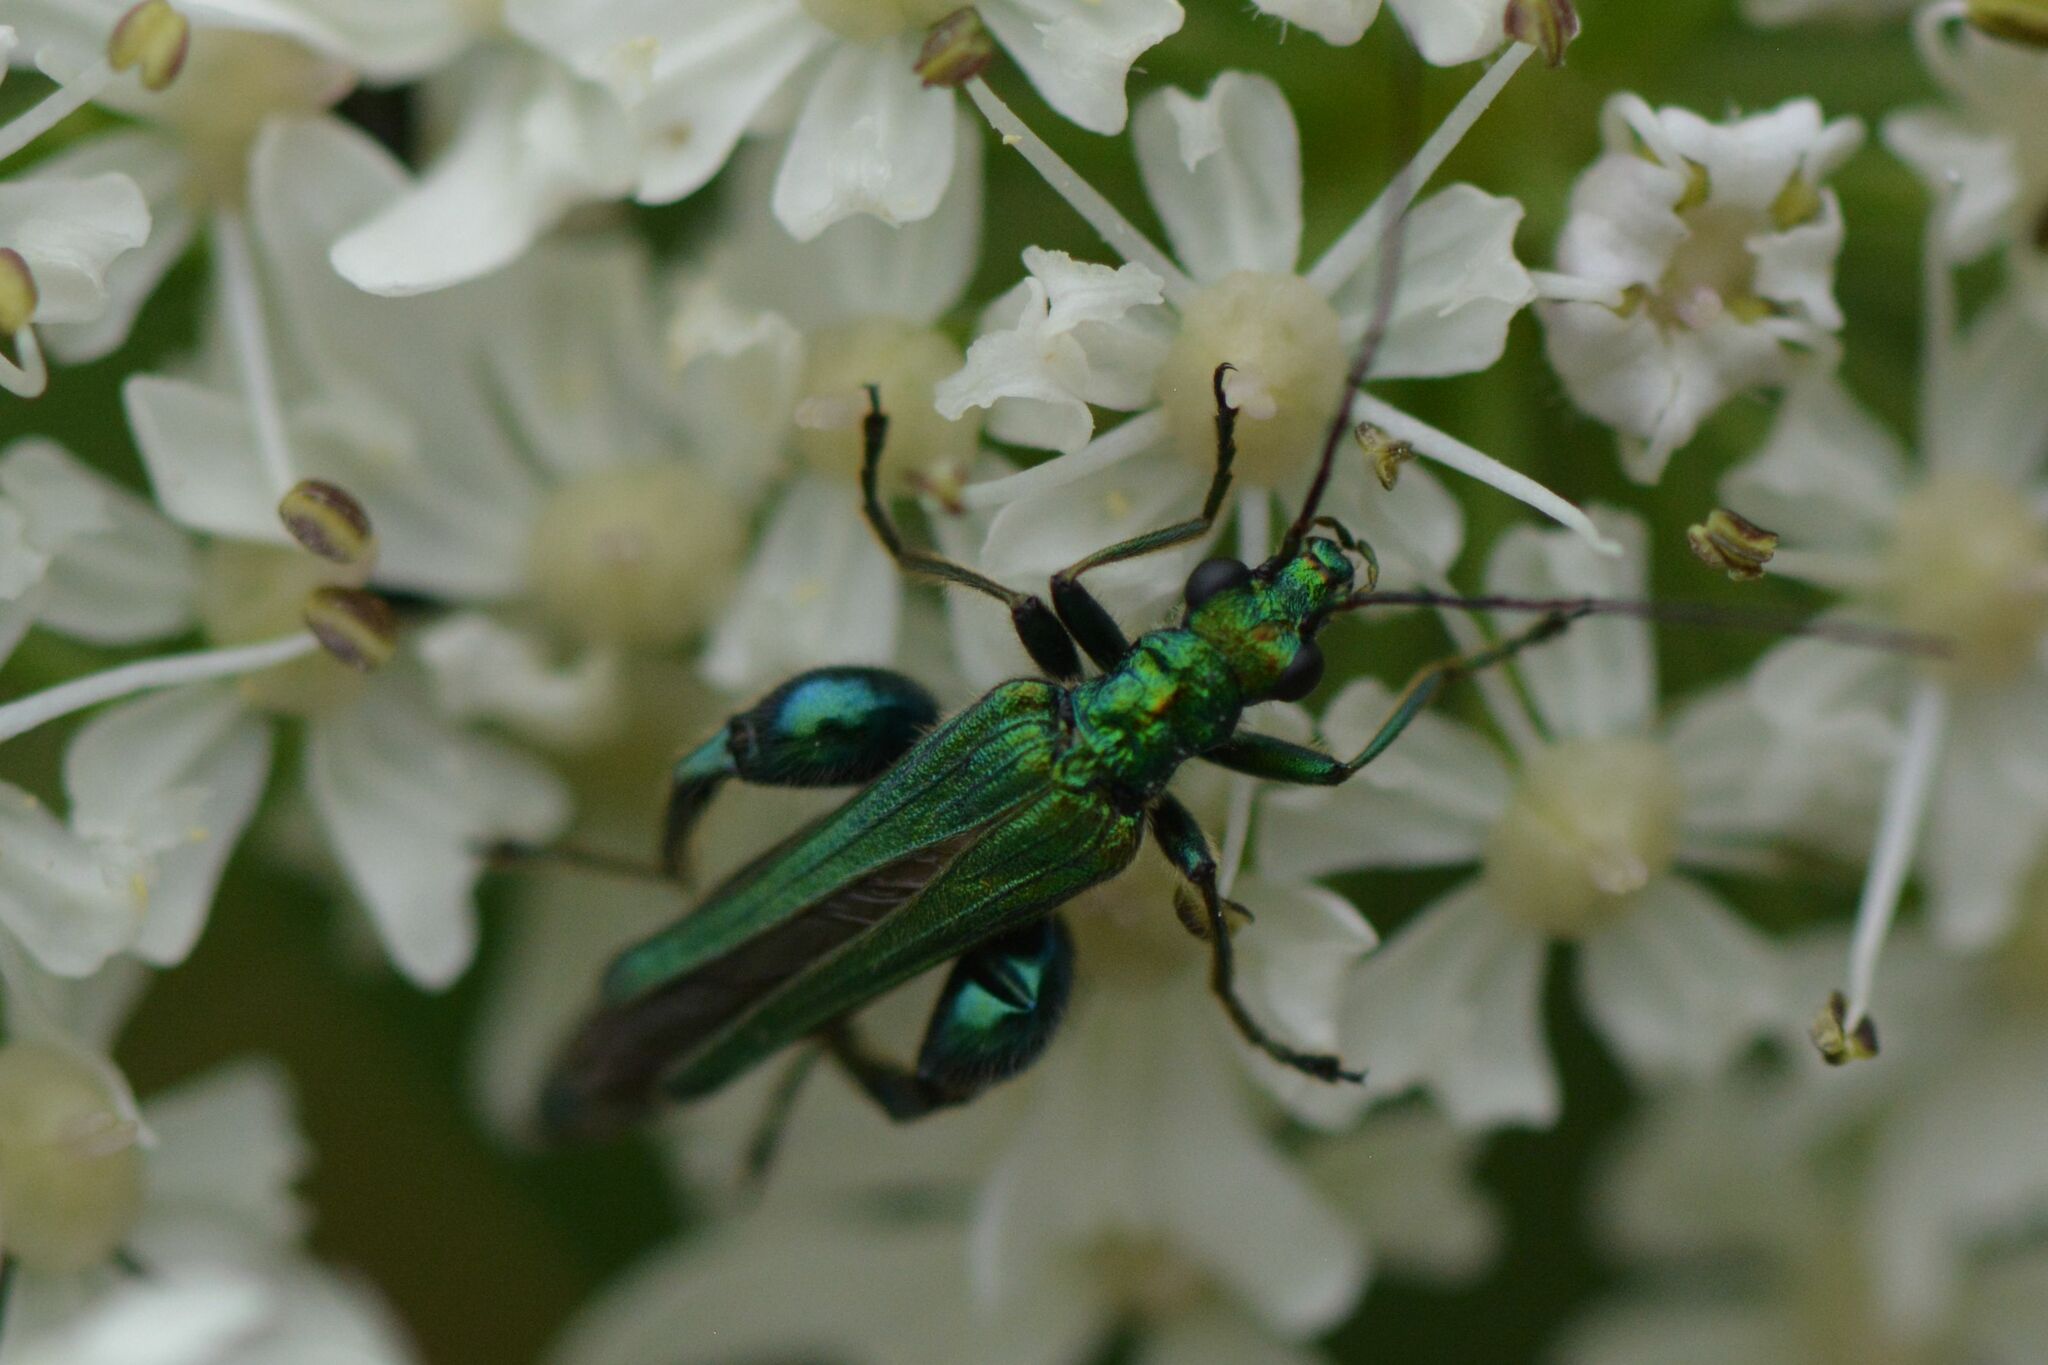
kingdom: Animalia
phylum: Arthropoda
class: Insecta
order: Coleoptera
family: Oedemeridae
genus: Oedemera
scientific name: Oedemera nobilis
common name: Swollen-thighed beetle
